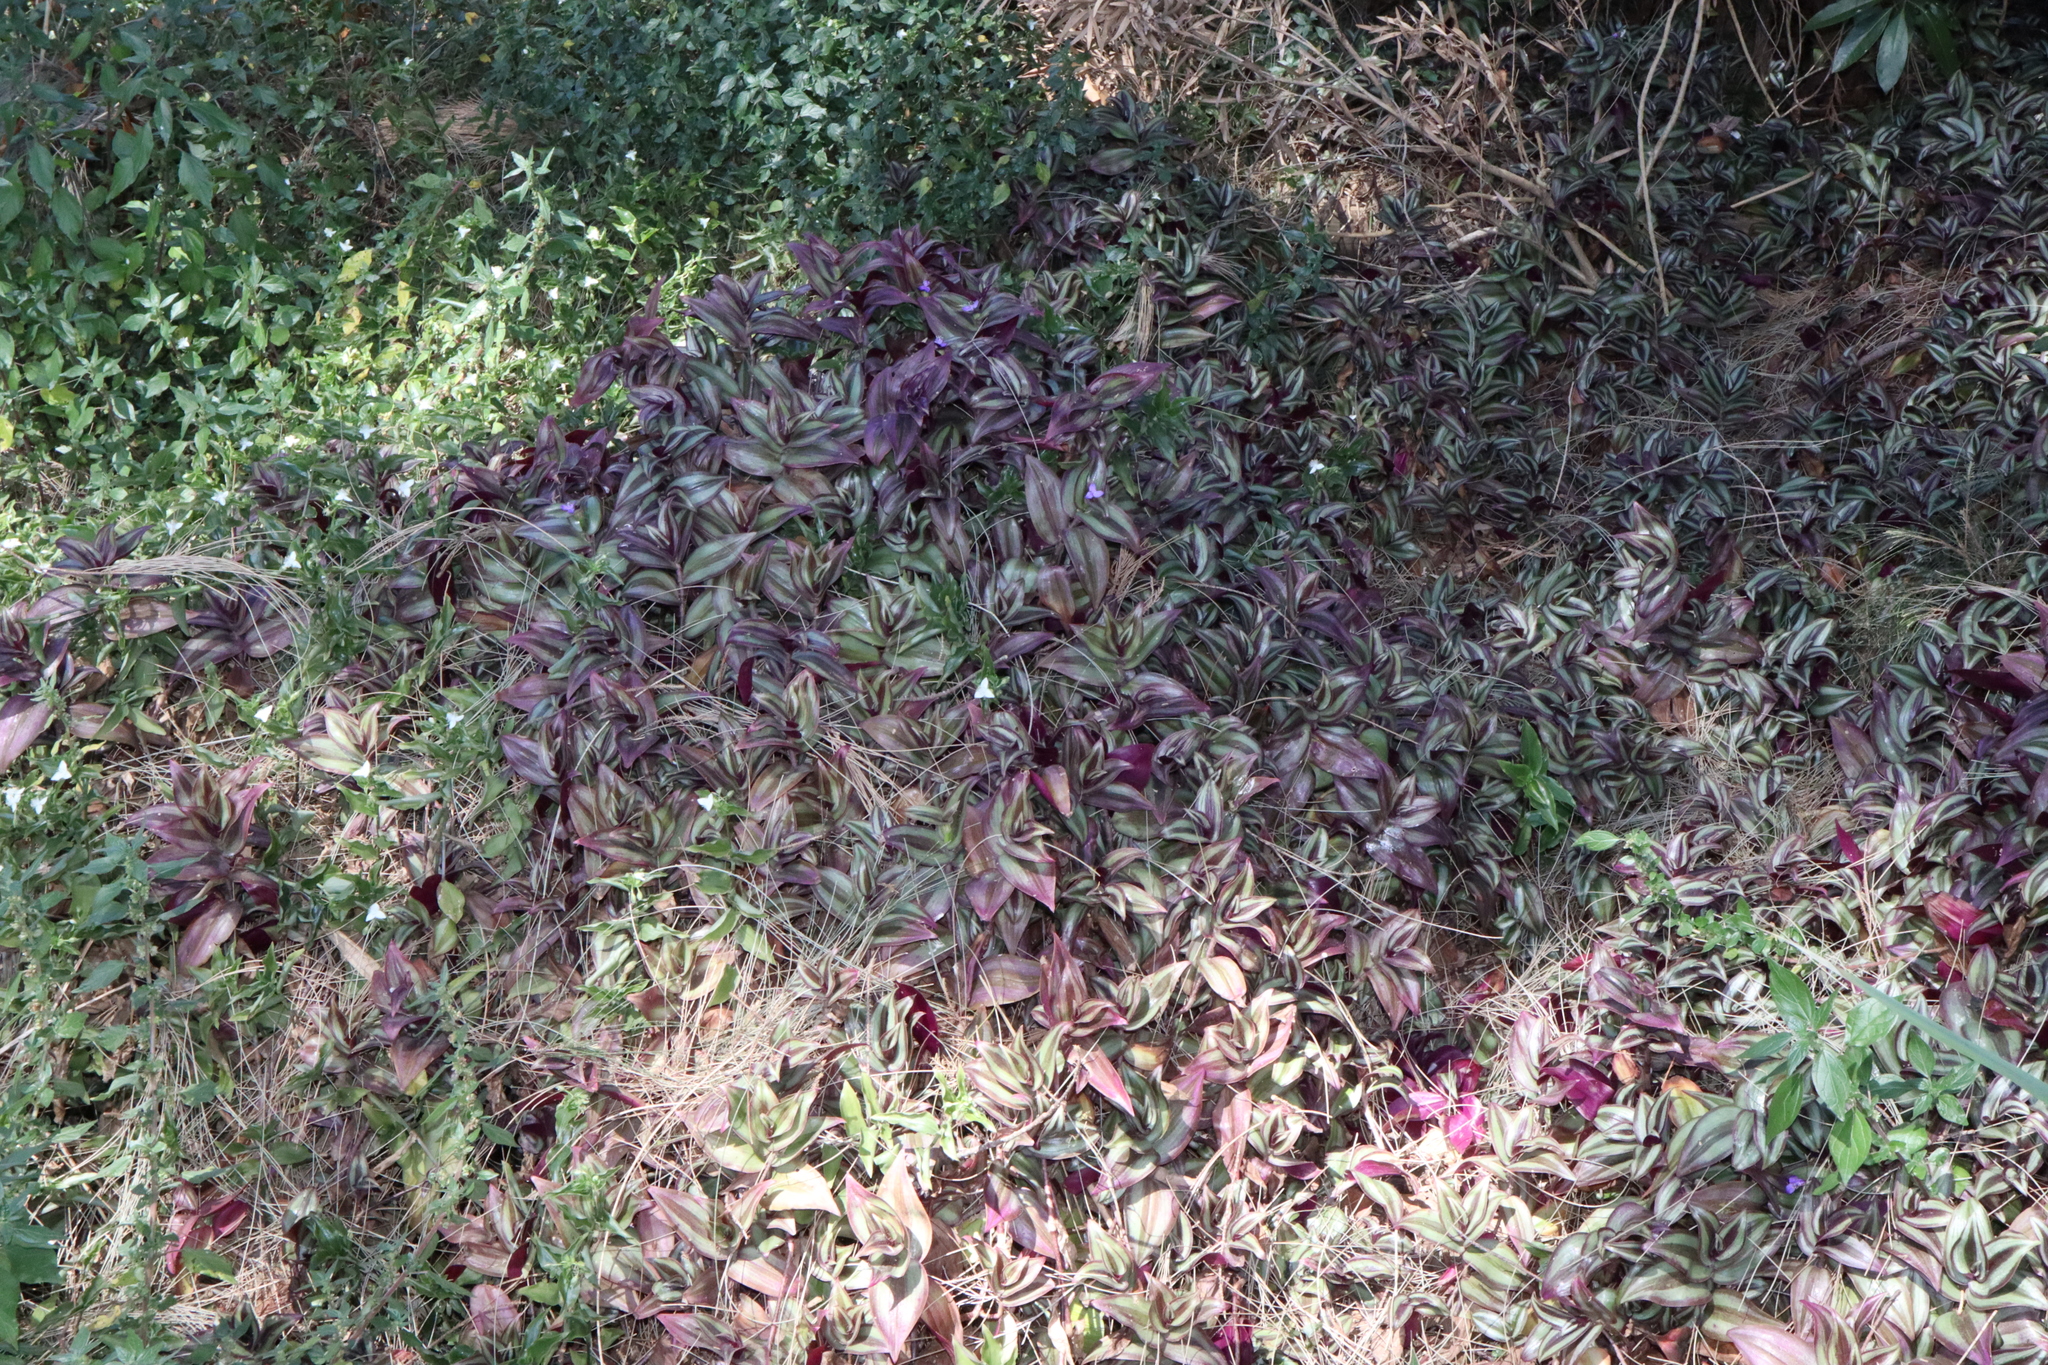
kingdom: Plantae
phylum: Tracheophyta
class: Liliopsida
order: Commelinales
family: Commelinaceae
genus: Tradescantia
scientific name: Tradescantia zebrina
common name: Inchplant
